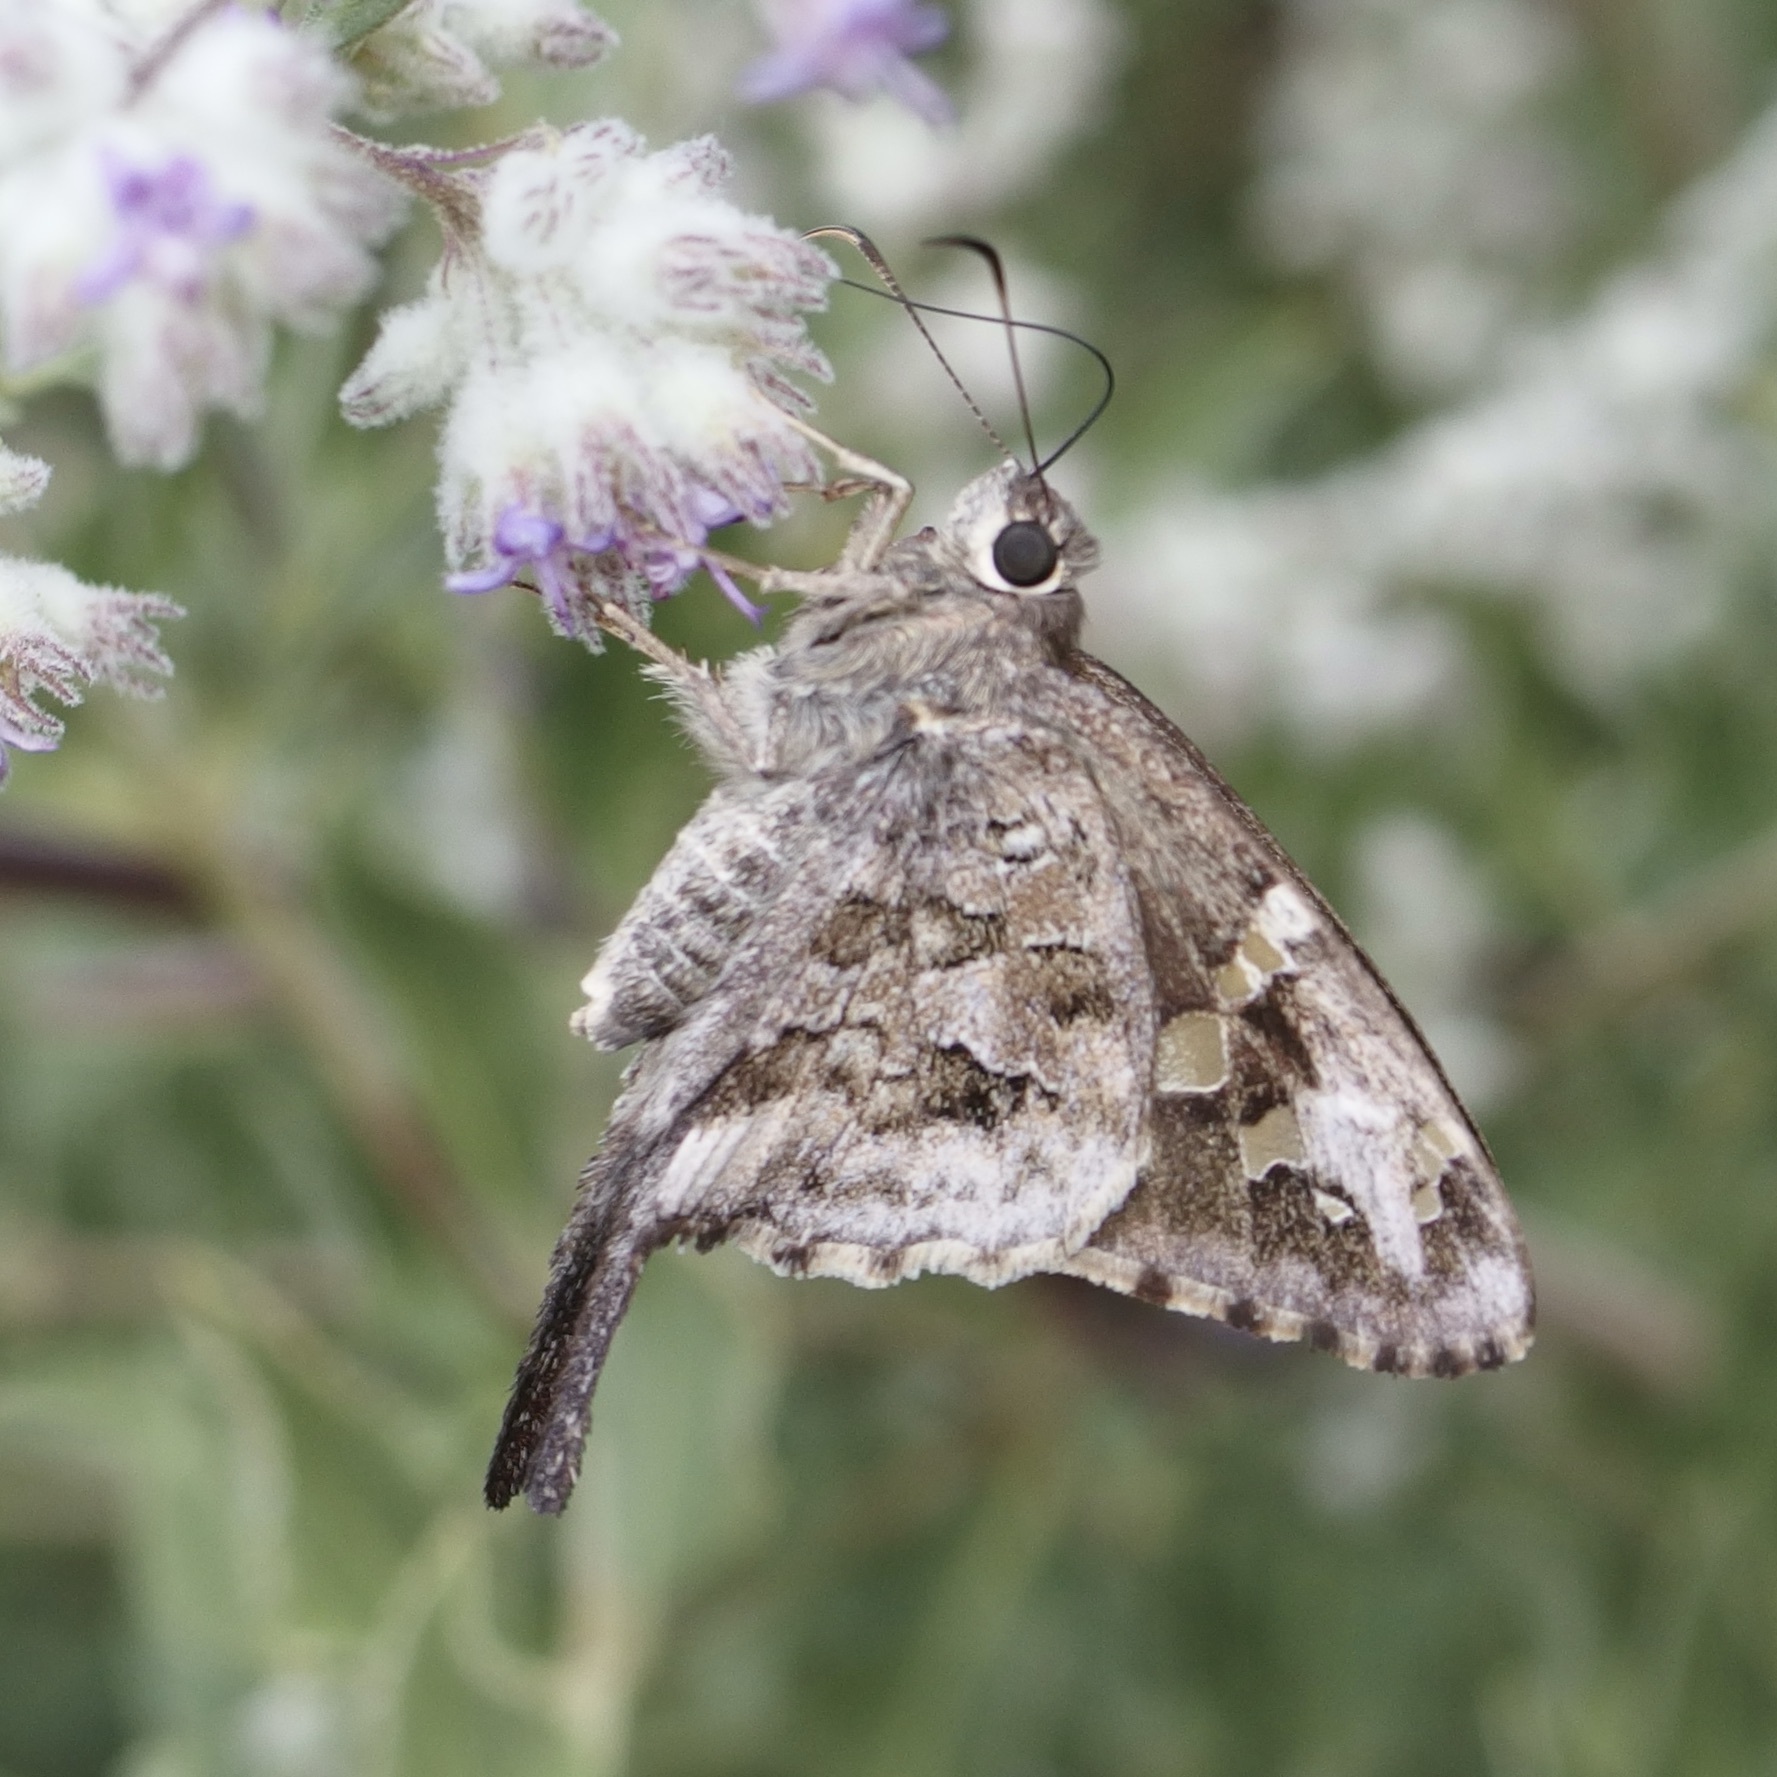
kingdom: Animalia
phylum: Arthropoda
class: Insecta
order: Lepidoptera
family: Hesperiidae
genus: Thorybes
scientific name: Thorybes
